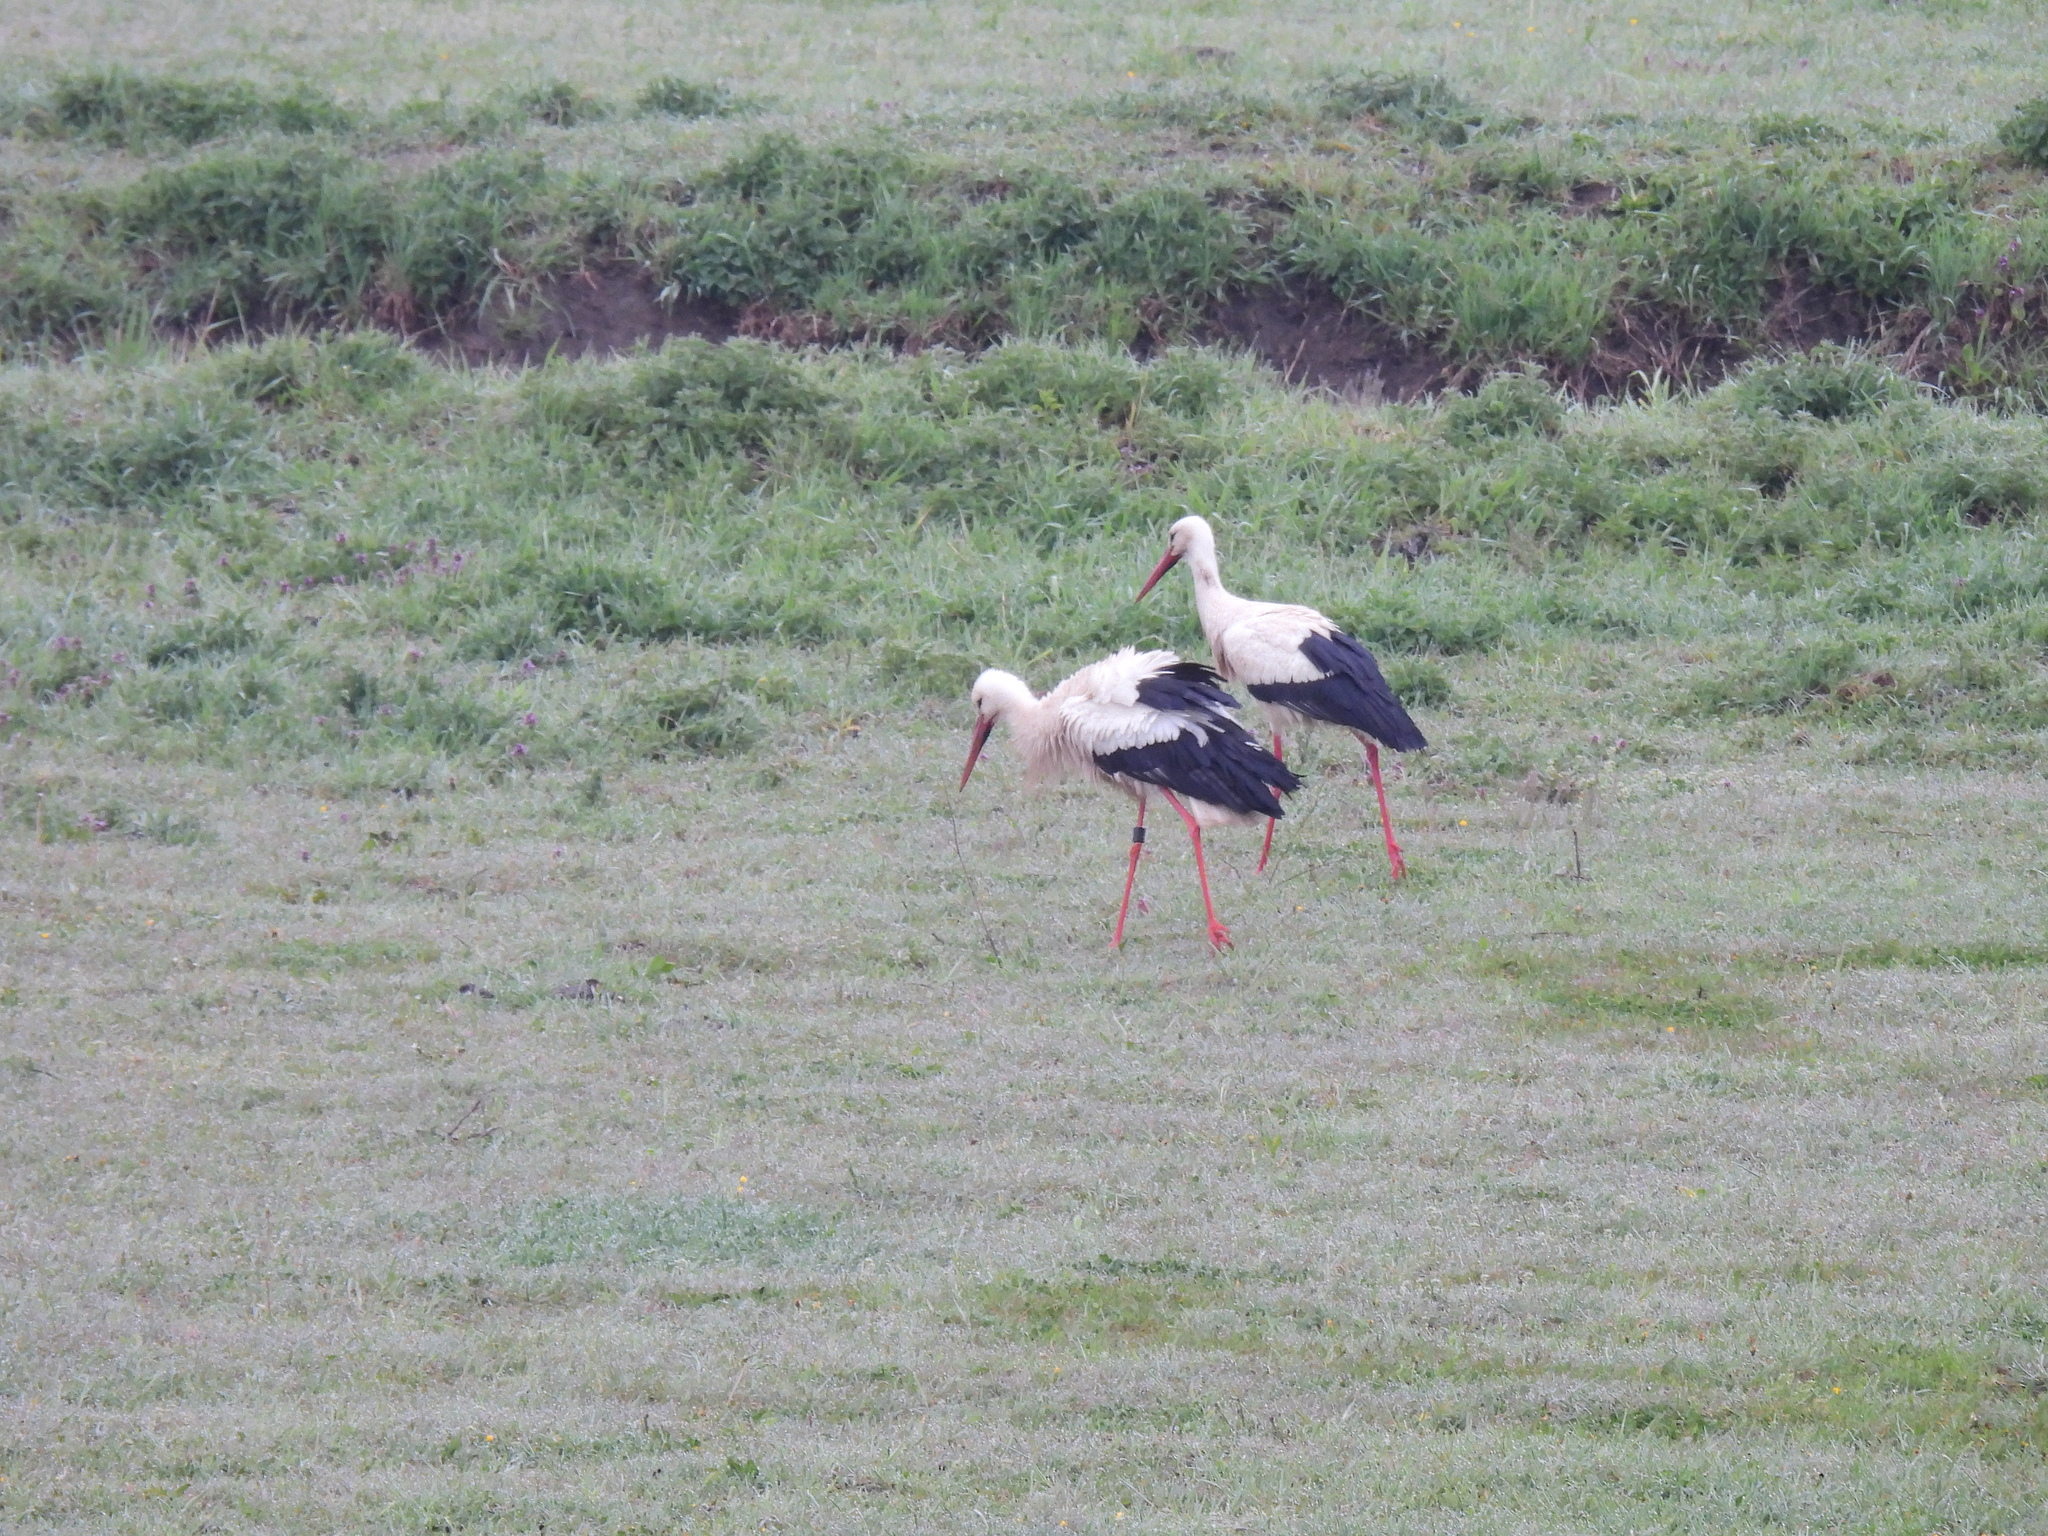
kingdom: Animalia
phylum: Chordata
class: Aves
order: Ciconiiformes
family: Ciconiidae
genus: Ciconia
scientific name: Ciconia ciconia
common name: White stork
